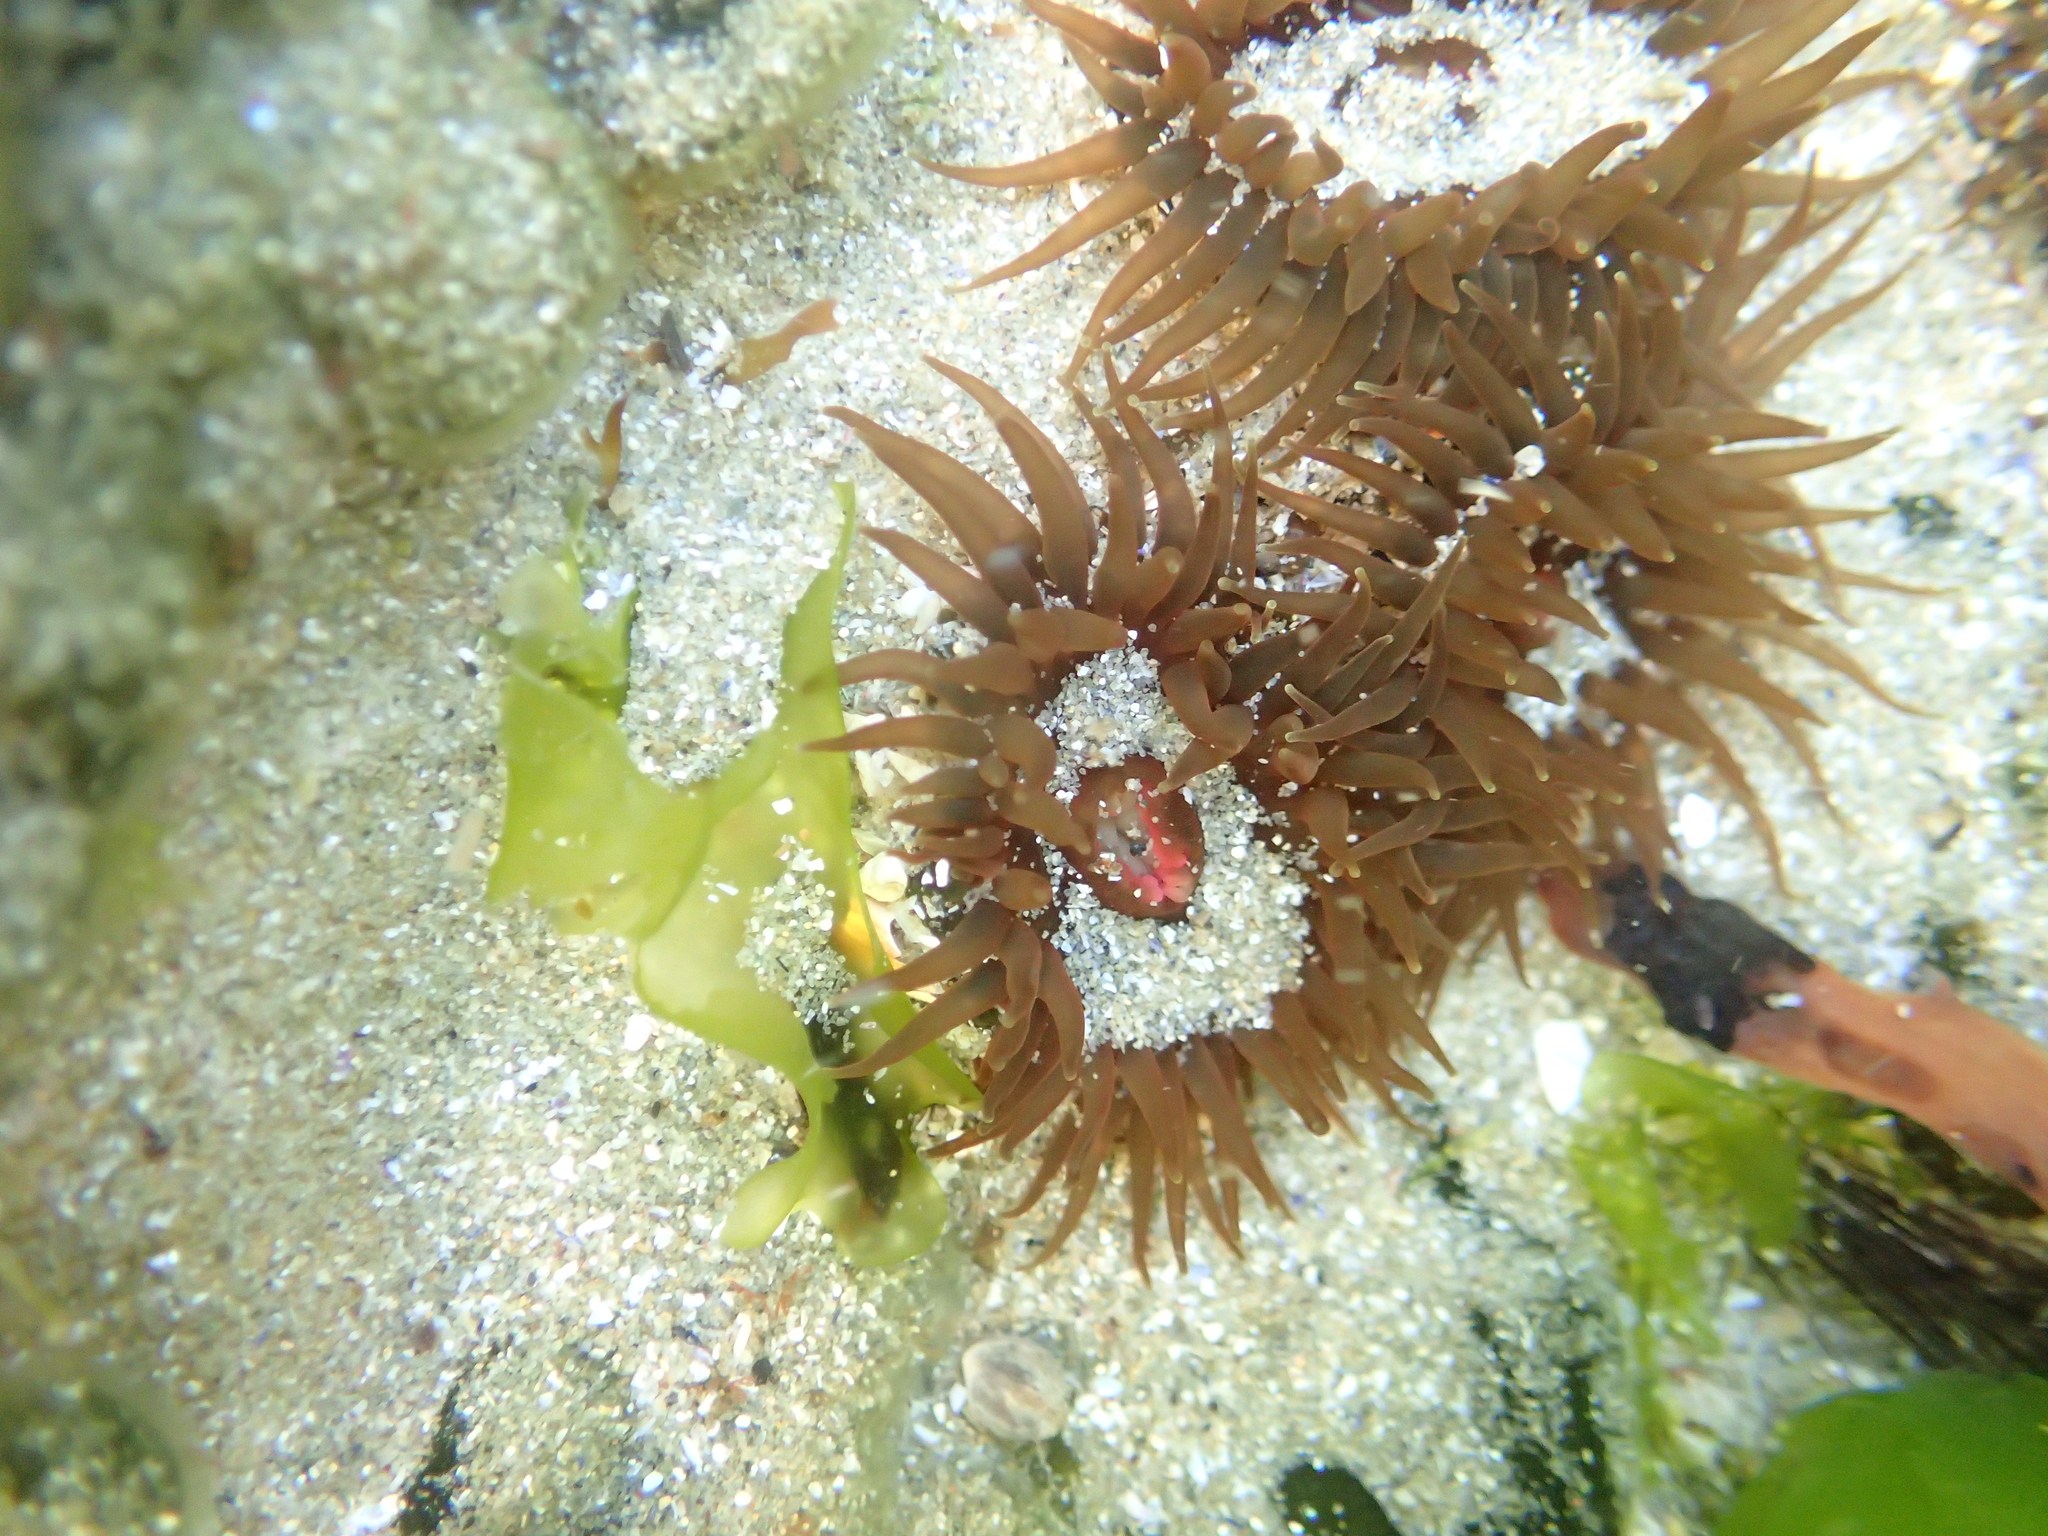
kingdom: Animalia
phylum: Cnidaria
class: Anthozoa
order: Actiniaria
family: Actiniidae
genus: Isactinia
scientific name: Isactinia olivacea
